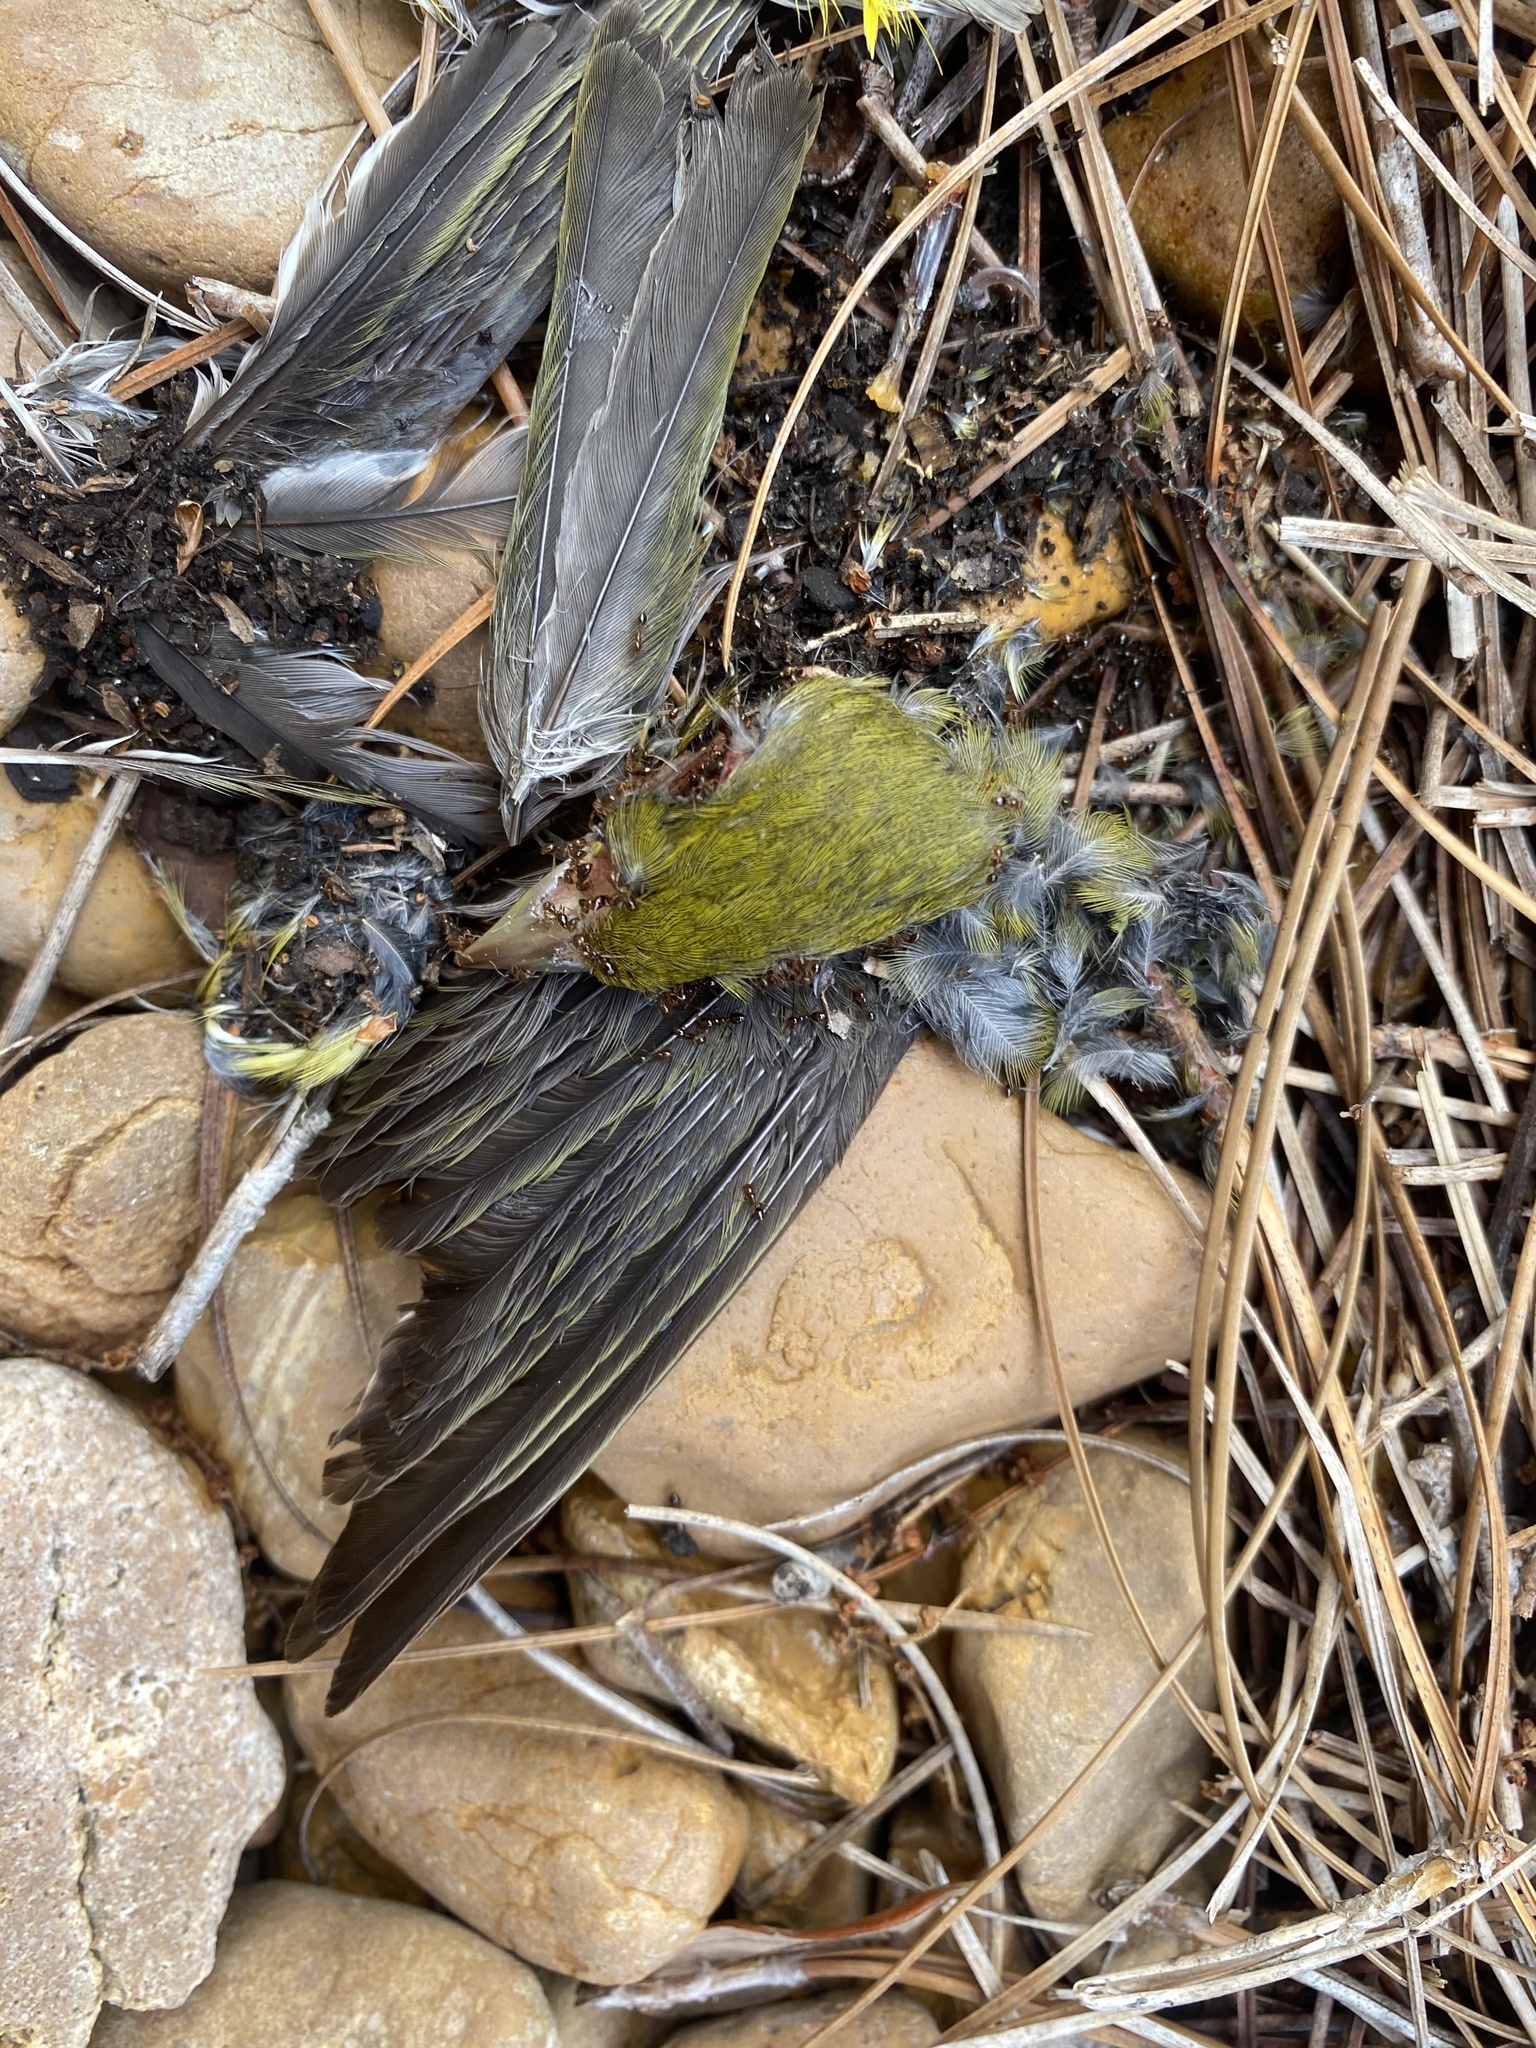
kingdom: Animalia
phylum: Chordata
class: Aves
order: Passeriformes
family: Cardinalidae
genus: Passerina
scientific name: Passerina ciris
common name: Painted bunting
